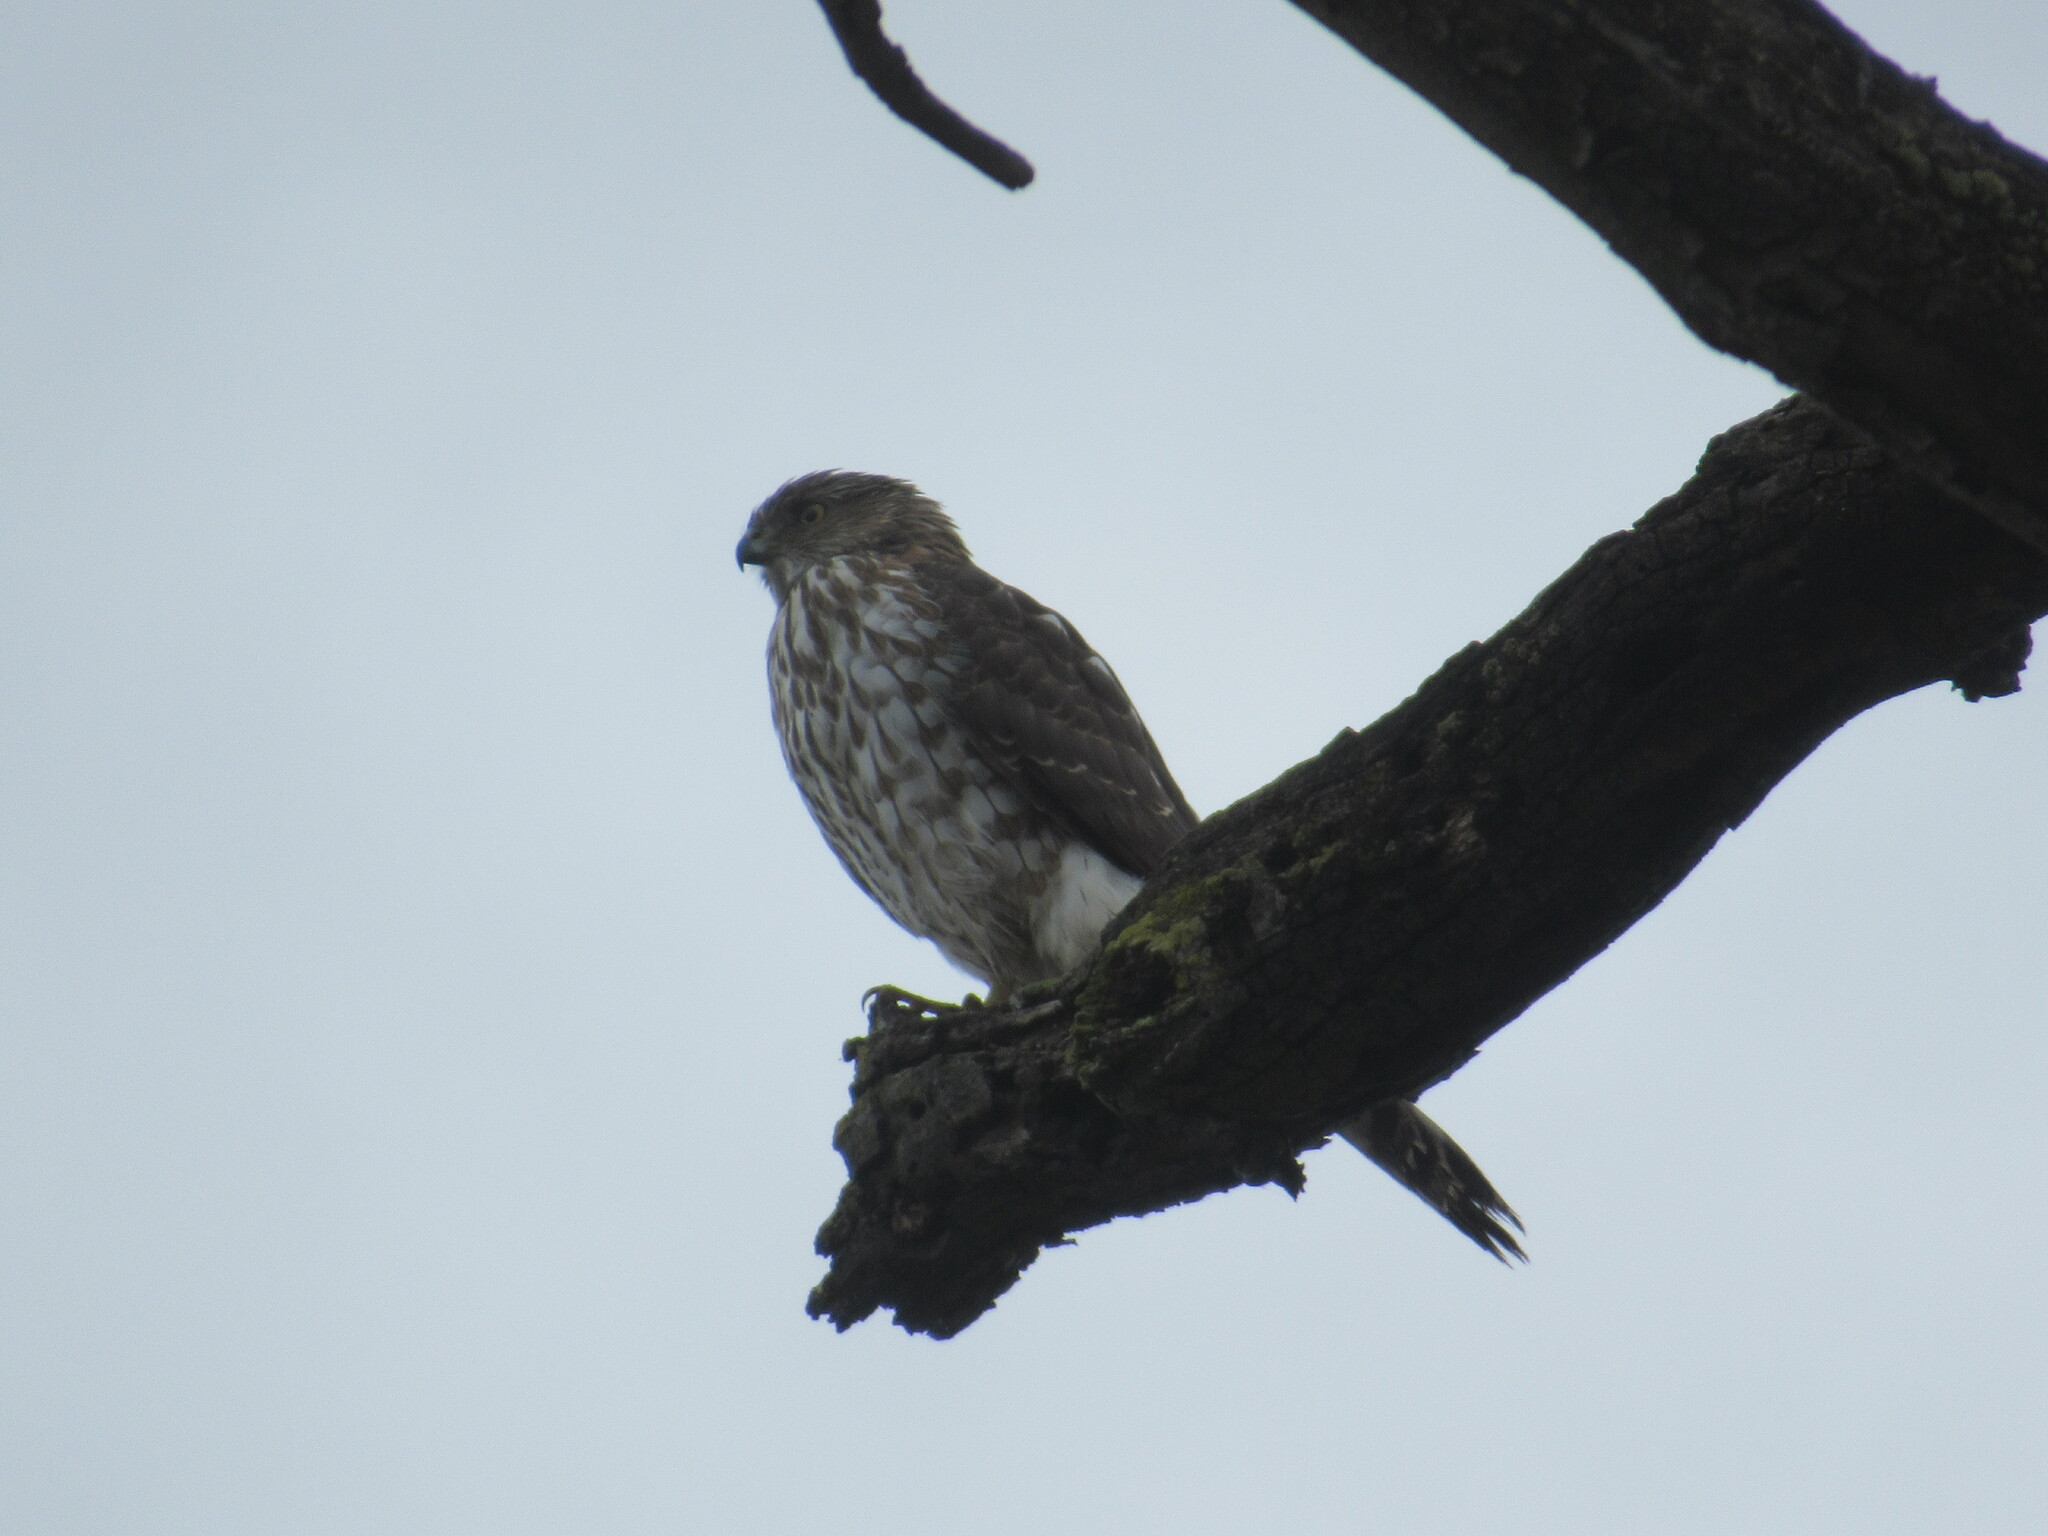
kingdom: Animalia
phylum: Chordata
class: Aves
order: Accipitriformes
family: Accipitridae
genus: Accipiter
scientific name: Accipiter cooperii
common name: Cooper's hawk
